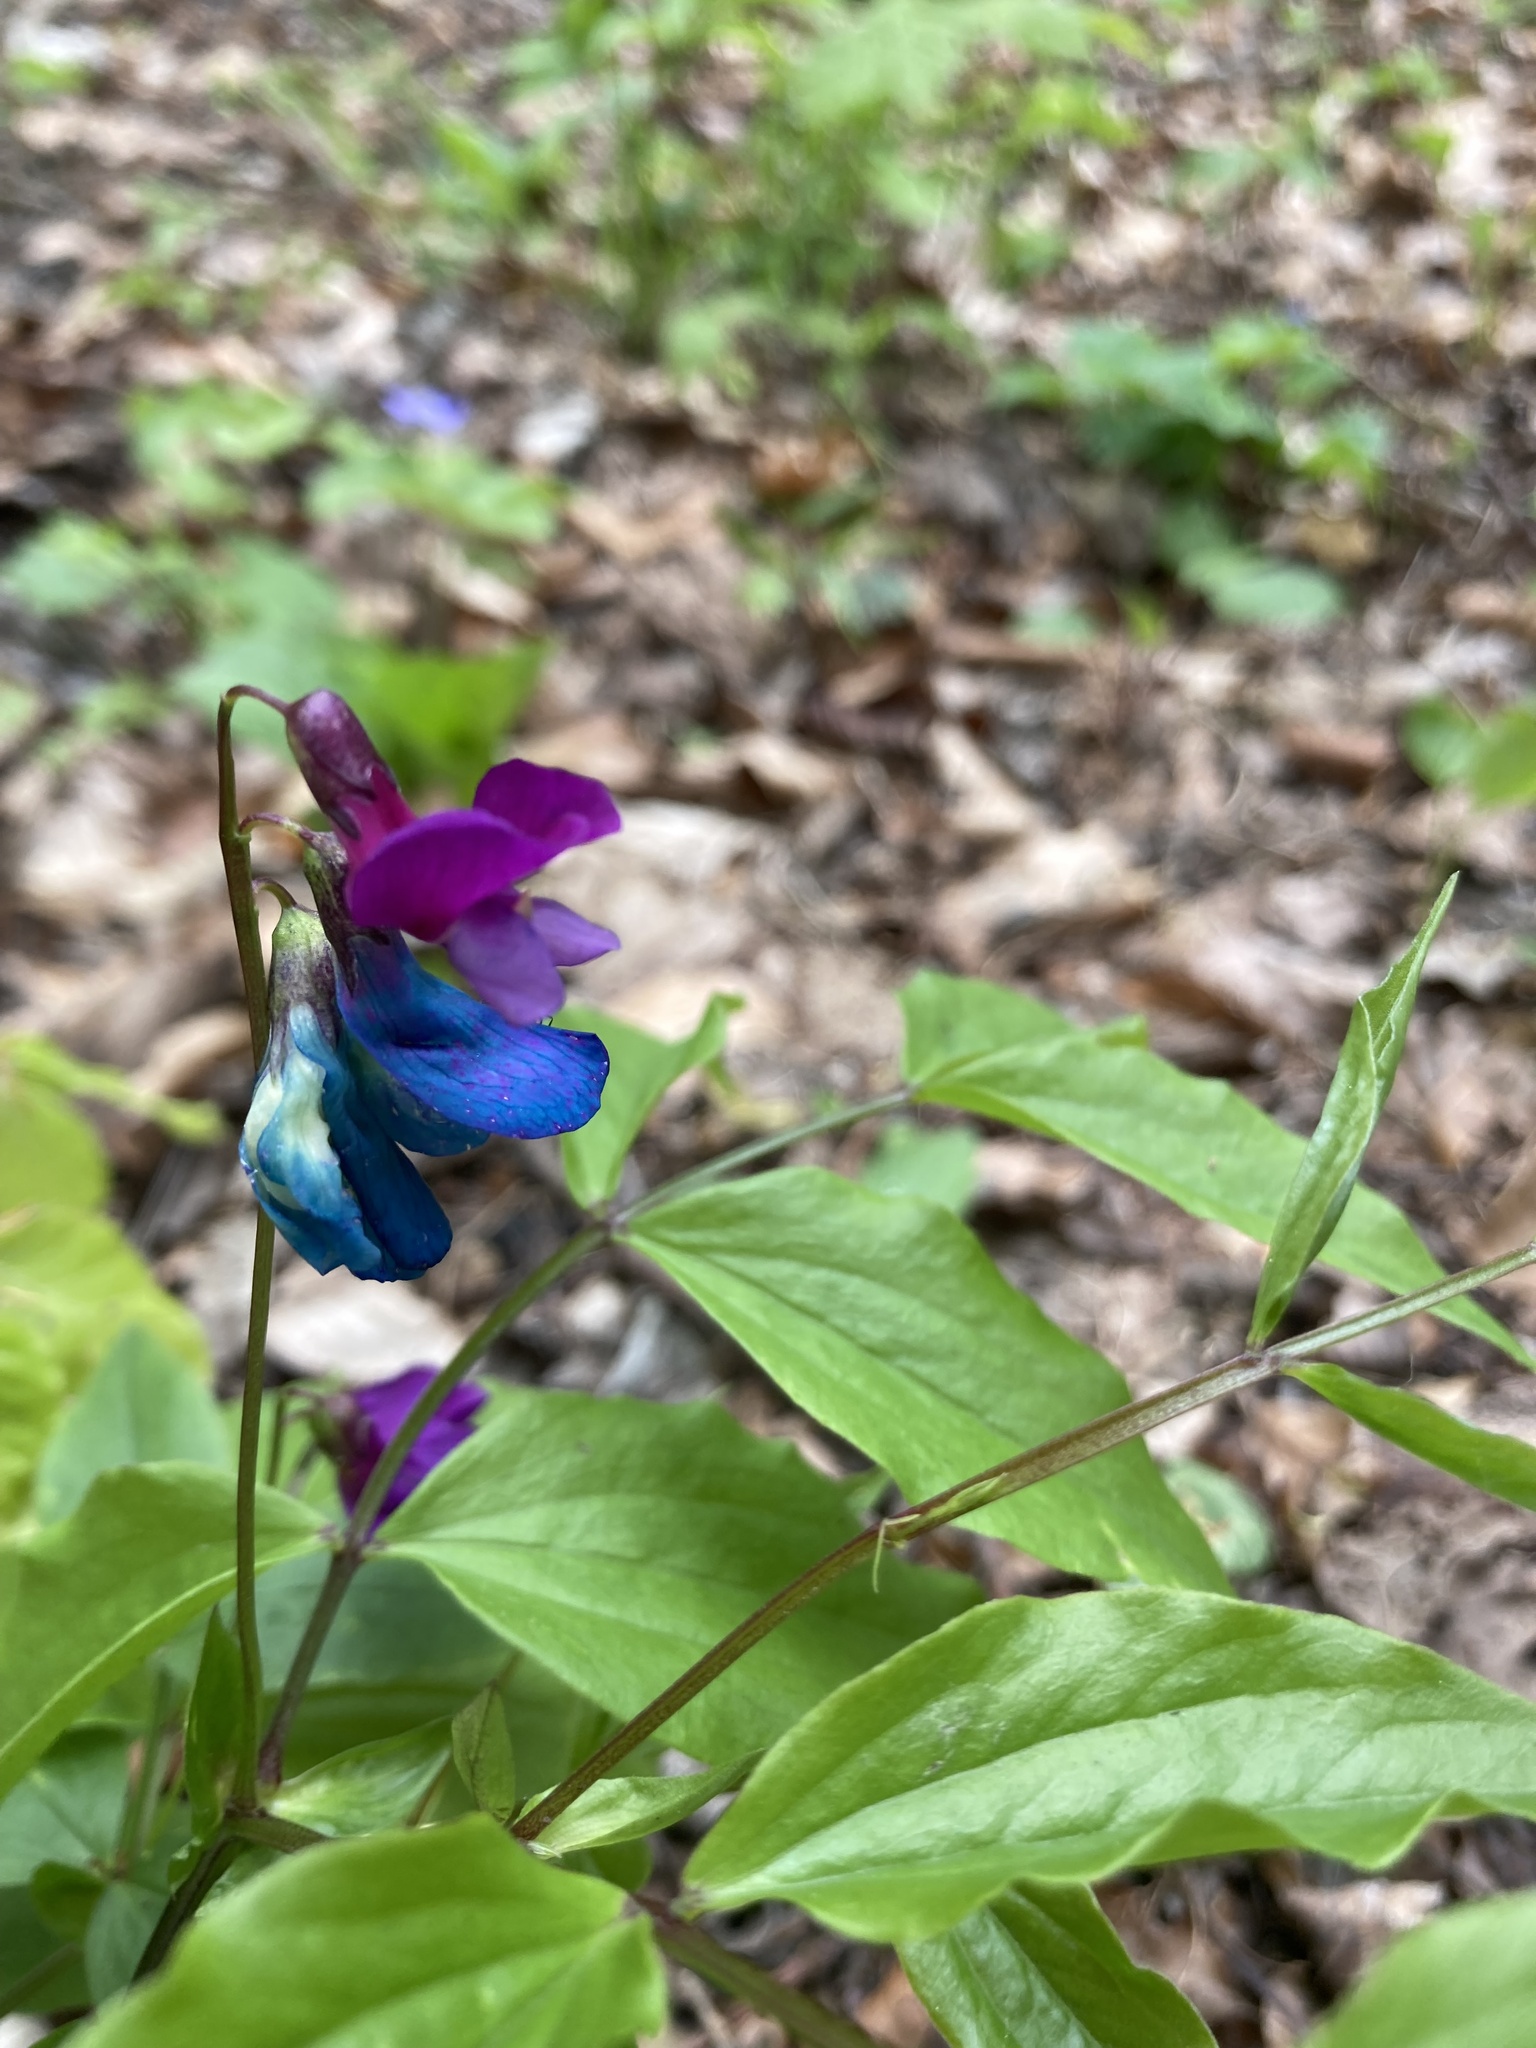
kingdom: Plantae
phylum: Tracheophyta
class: Magnoliopsida
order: Fabales
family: Fabaceae
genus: Lathyrus
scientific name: Lathyrus vernus
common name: Spring pea
